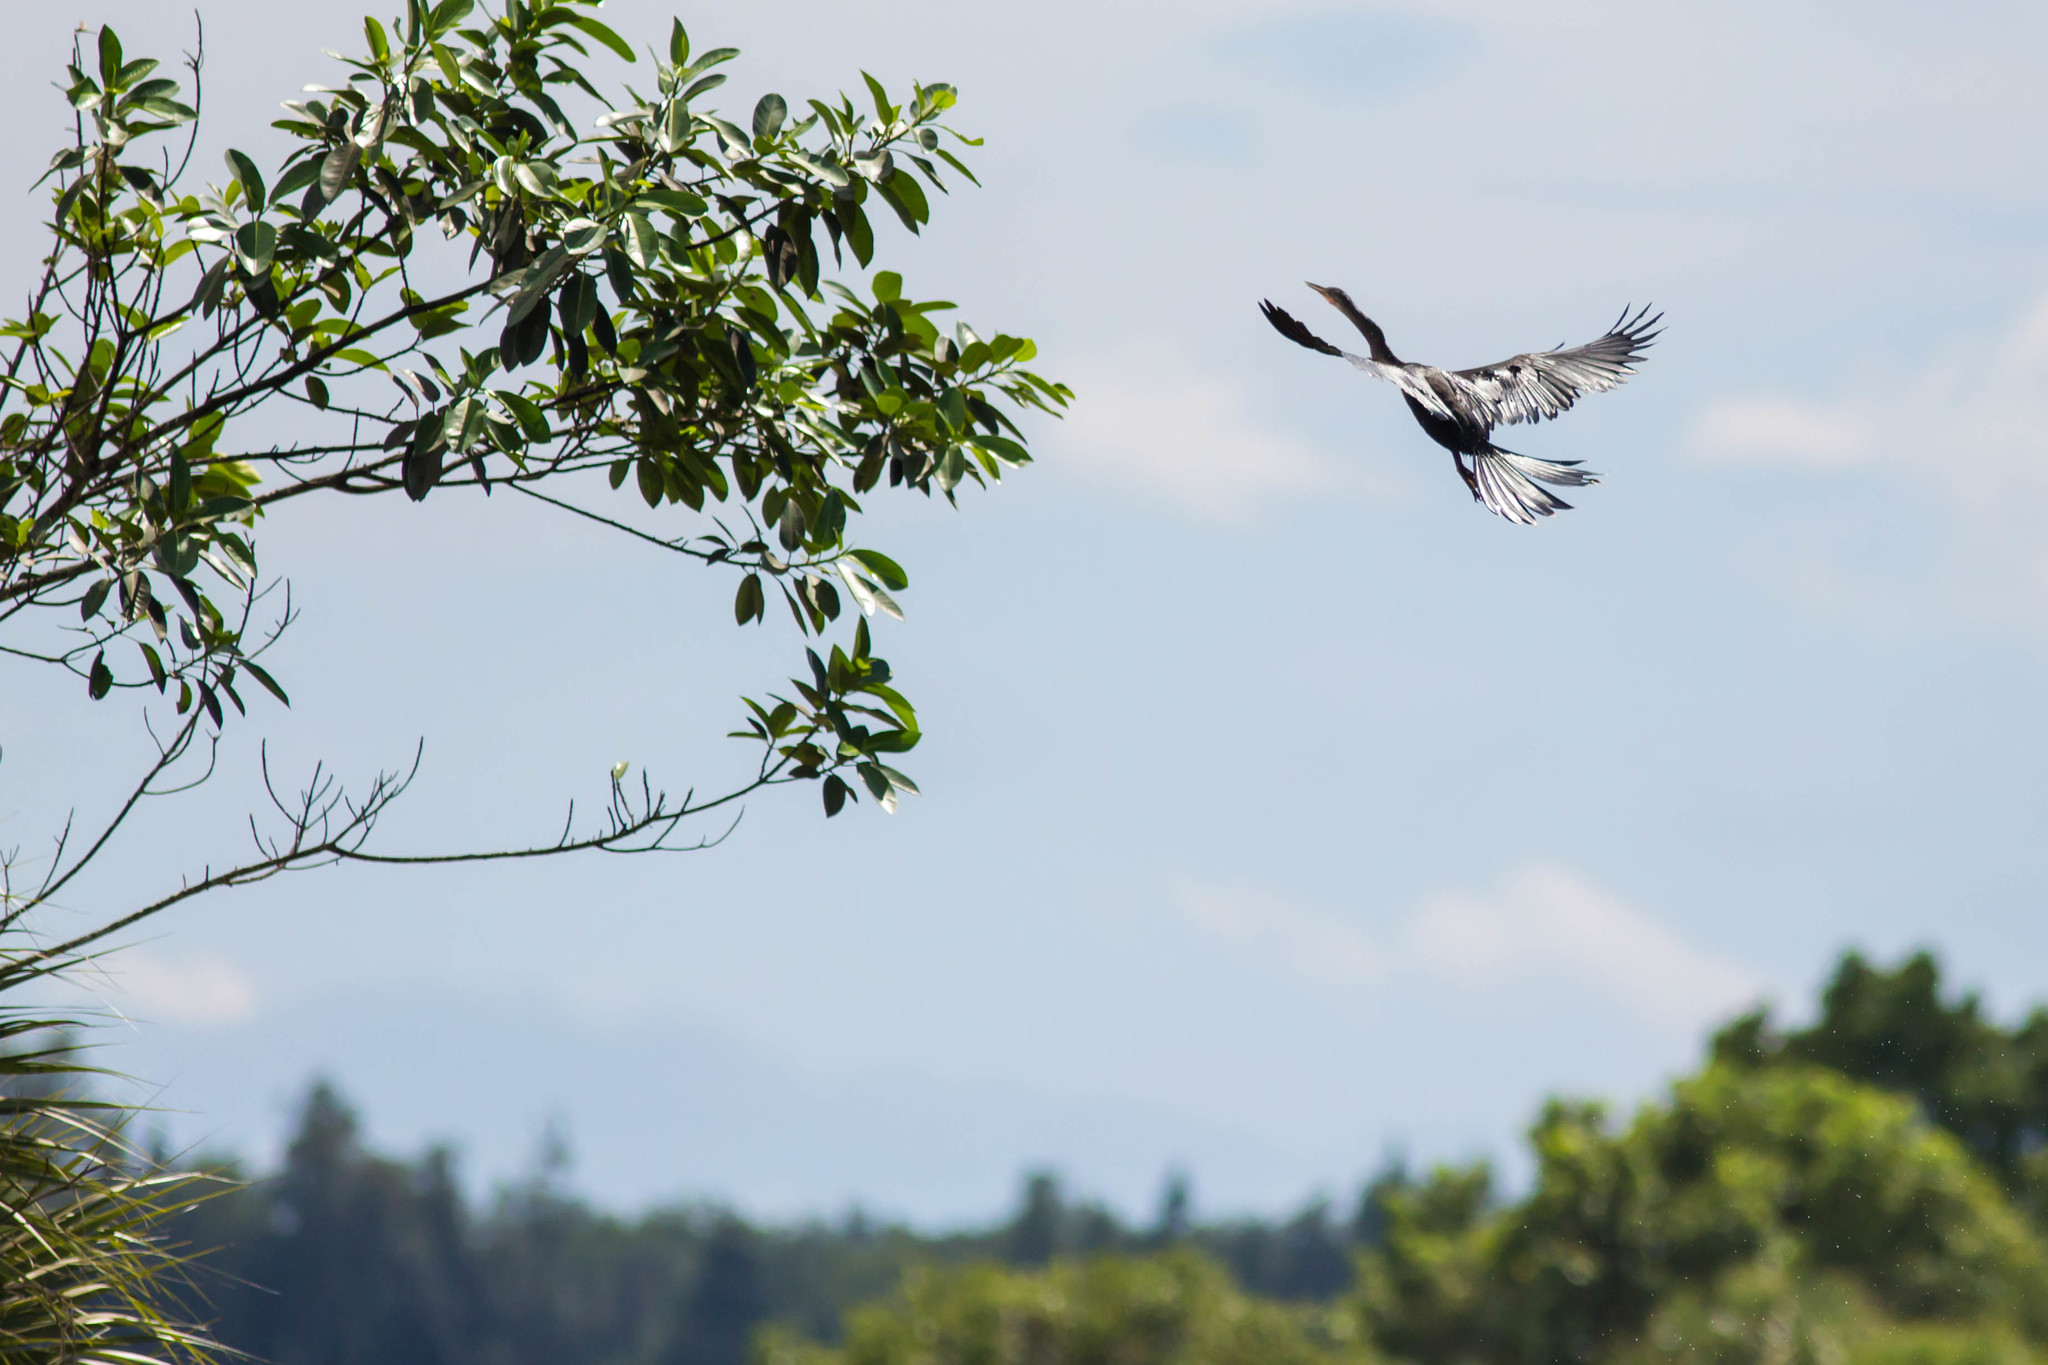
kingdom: Animalia
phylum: Chordata
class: Aves
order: Suliformes
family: Anhingidae
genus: Anhinga
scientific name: Anhinga anhinga
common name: Anhinga
